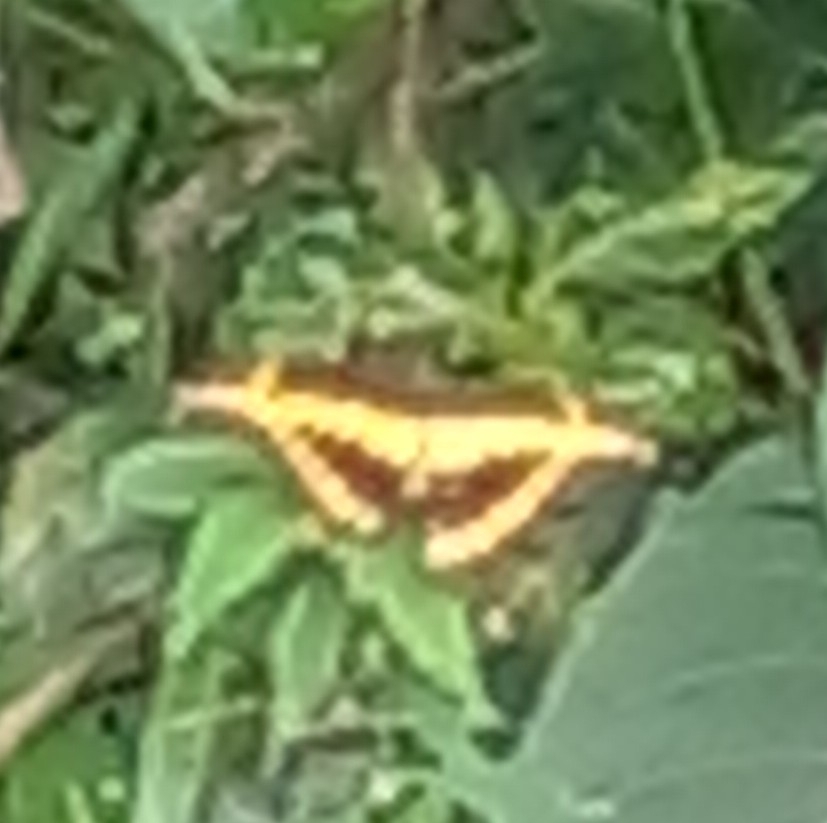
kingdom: Animalia
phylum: Arthropoda
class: Insecta
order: Lepidoptera
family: Papilionidae
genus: Papilio
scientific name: Papilio rumiko
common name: Western giant swallowtail
